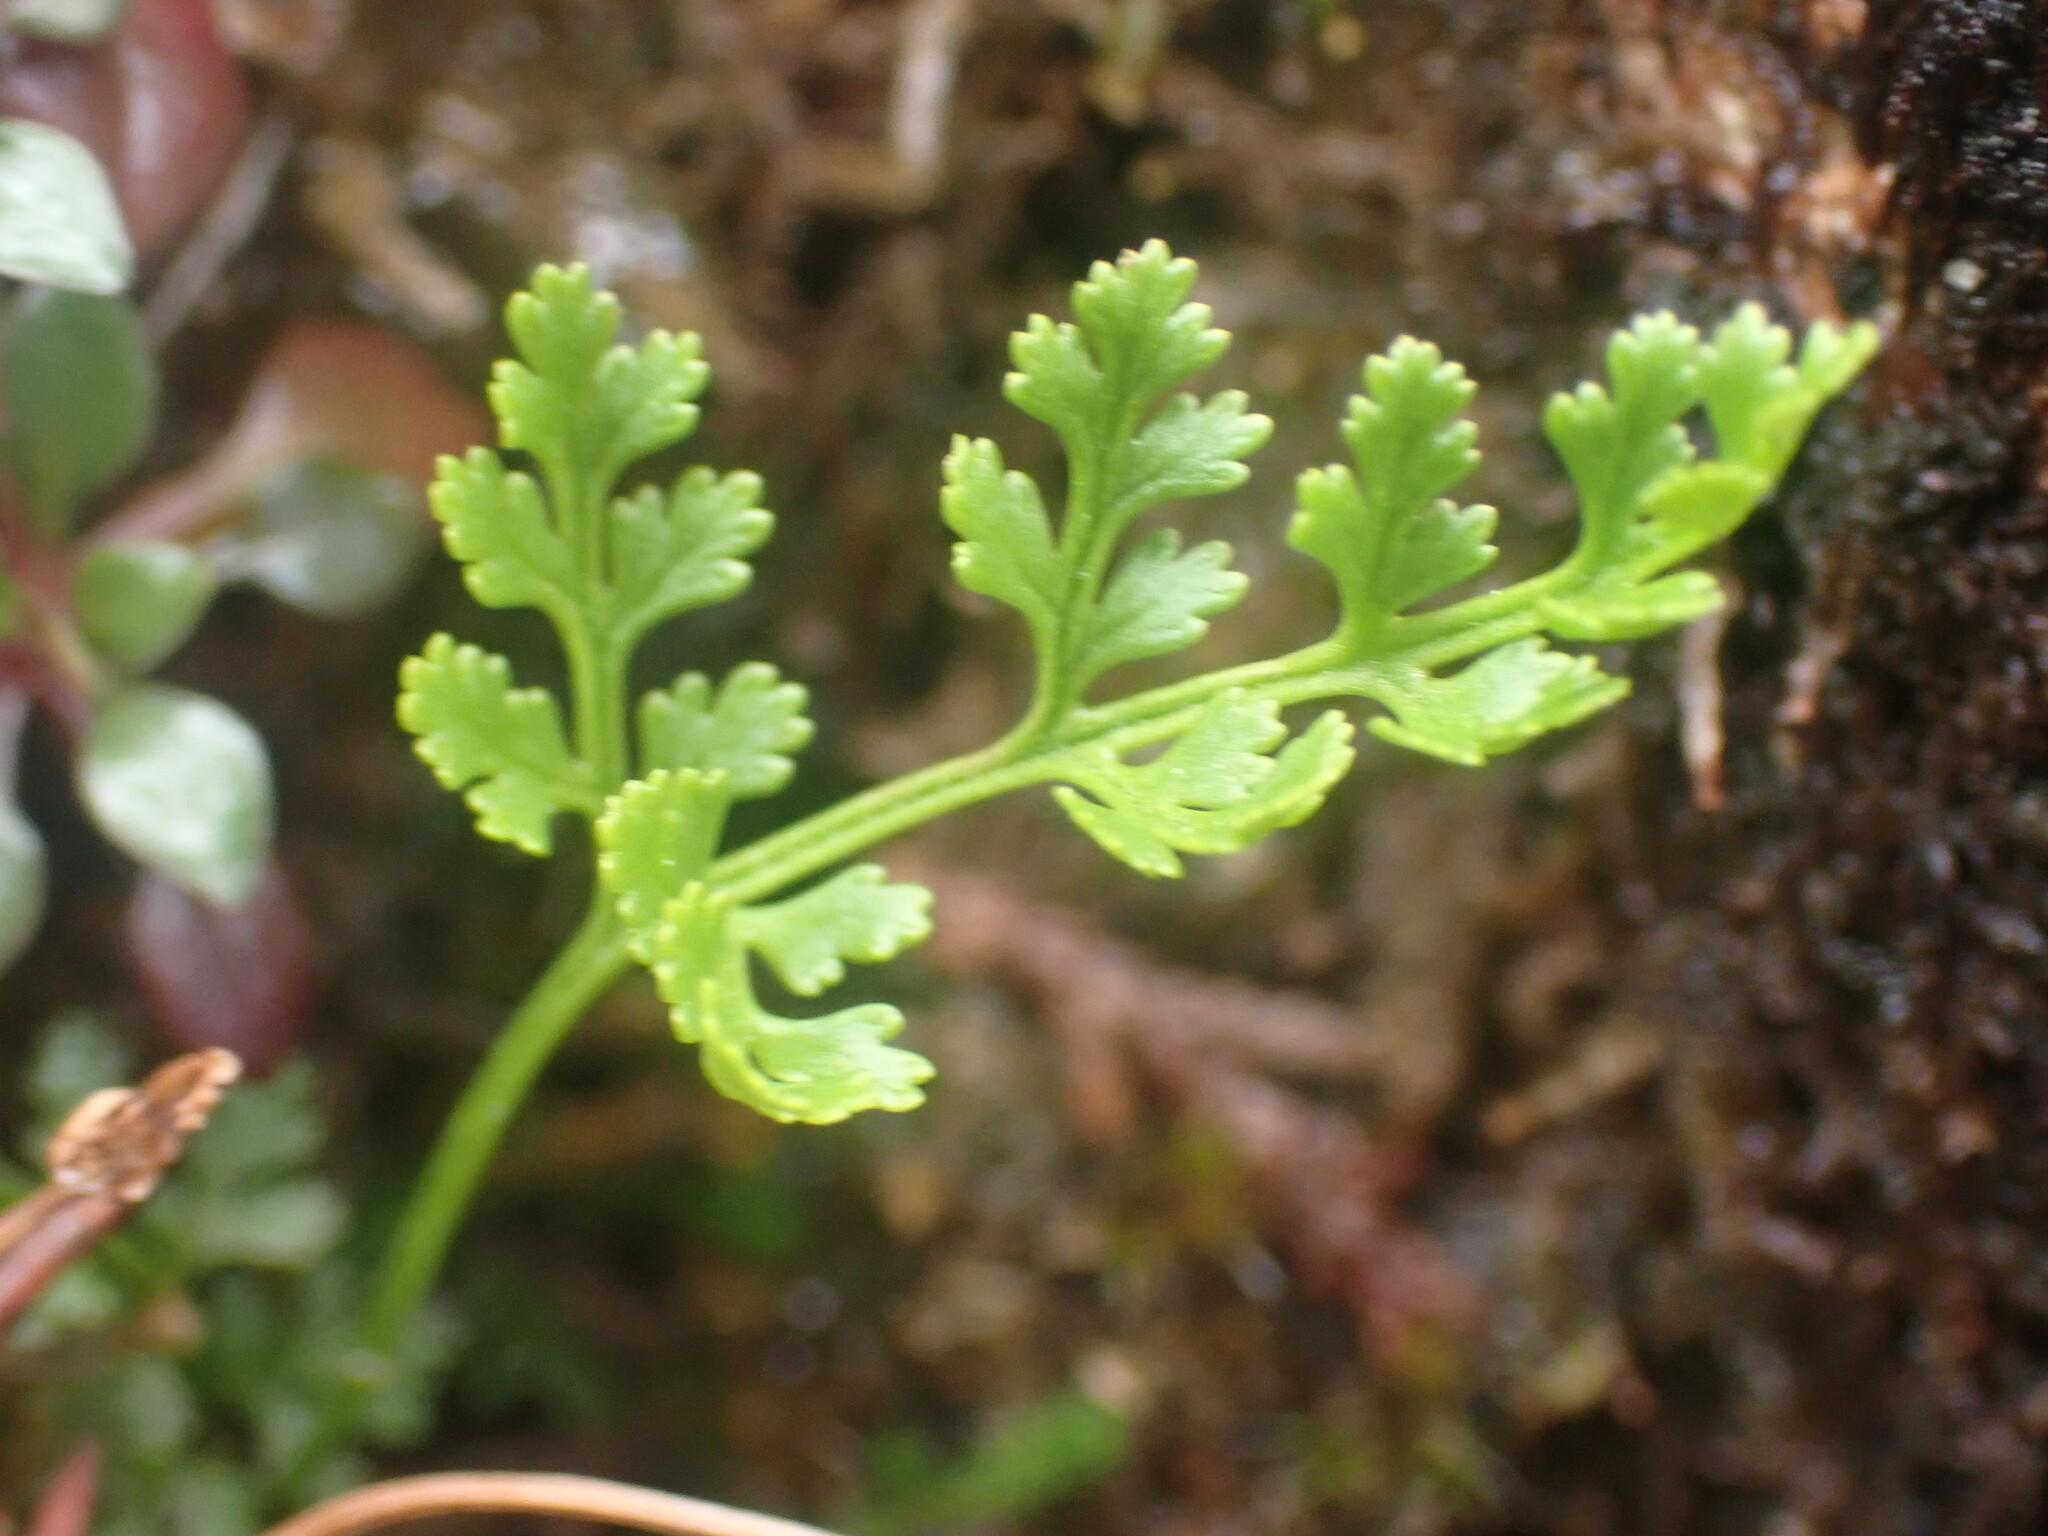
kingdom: Plantae
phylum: Tracheophyta
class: Polypodiopsida
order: Polypodiales
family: Pteridaceae
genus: Cryptogramma
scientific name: Cryptogramma acrostichoides
